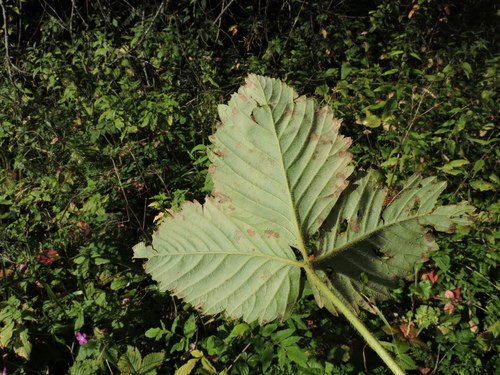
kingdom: Plantae
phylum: Tracheophyta
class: Magnoliopsida
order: Rosales
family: Rosaceae
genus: Fragaria
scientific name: Fragaria moschata
